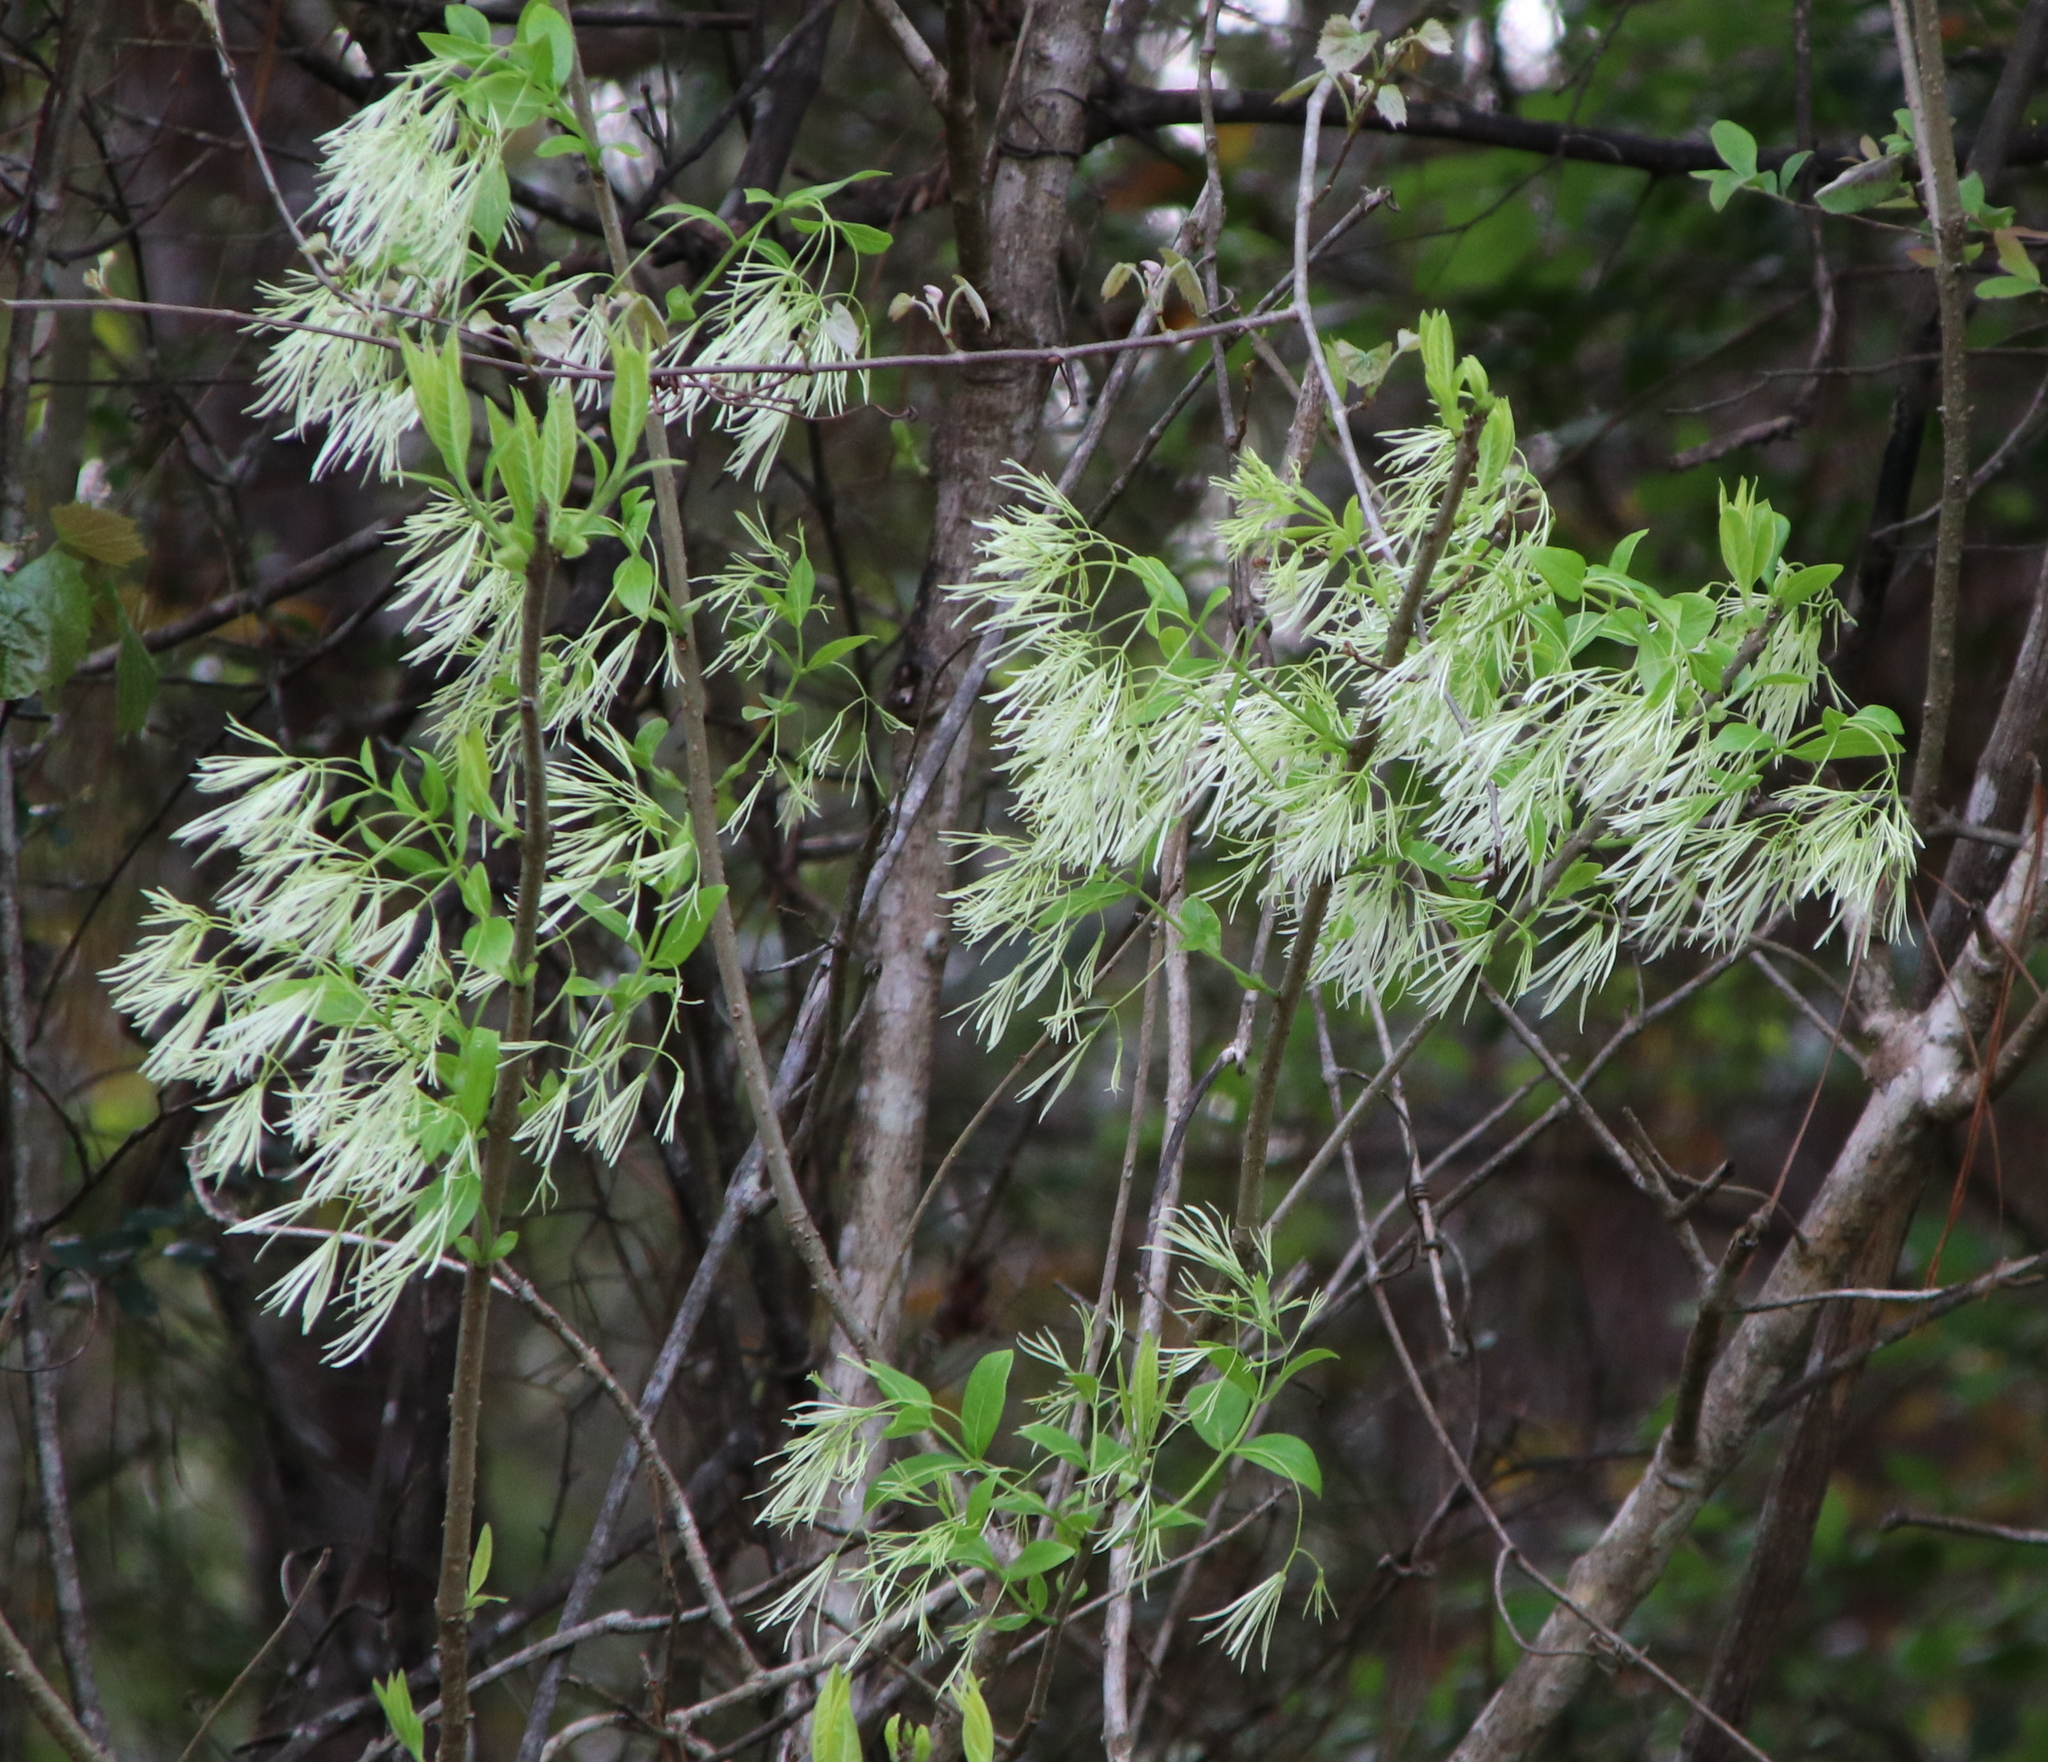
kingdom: Plantae
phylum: Tracheophyta
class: Magnoliopsida
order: Lamiales
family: Oleaceae
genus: Chionanthus
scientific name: Chionanthus virginicus
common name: American fringetree
